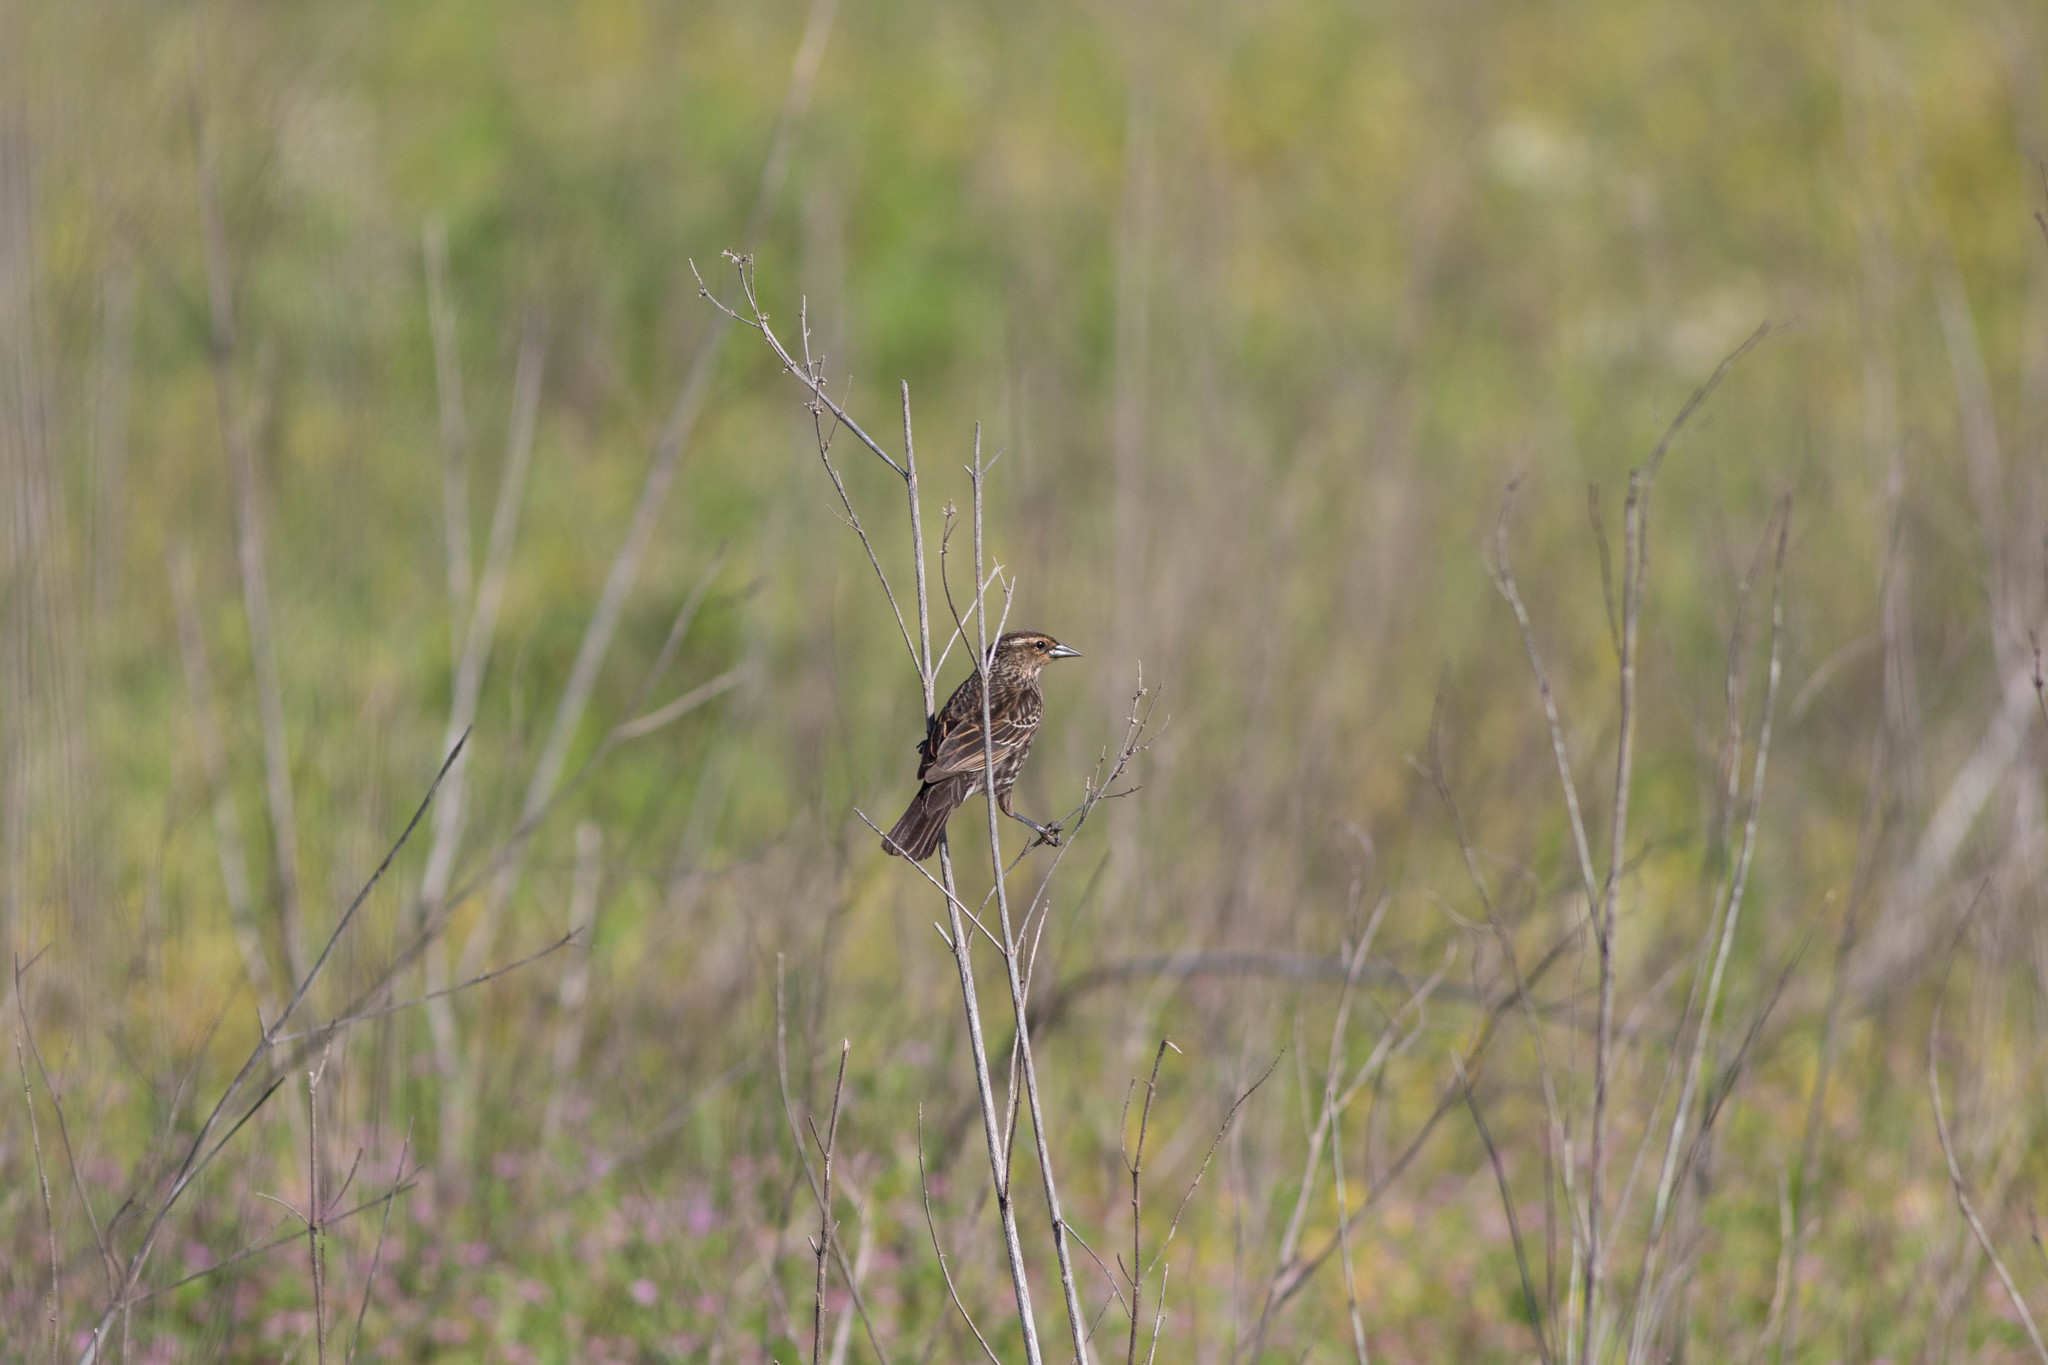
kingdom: Animalia
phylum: Chordata
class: Aves
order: Passeriformes
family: Icteridae
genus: Agelaius
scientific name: Agelaius phoeniceus
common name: Red-winged blackbird
